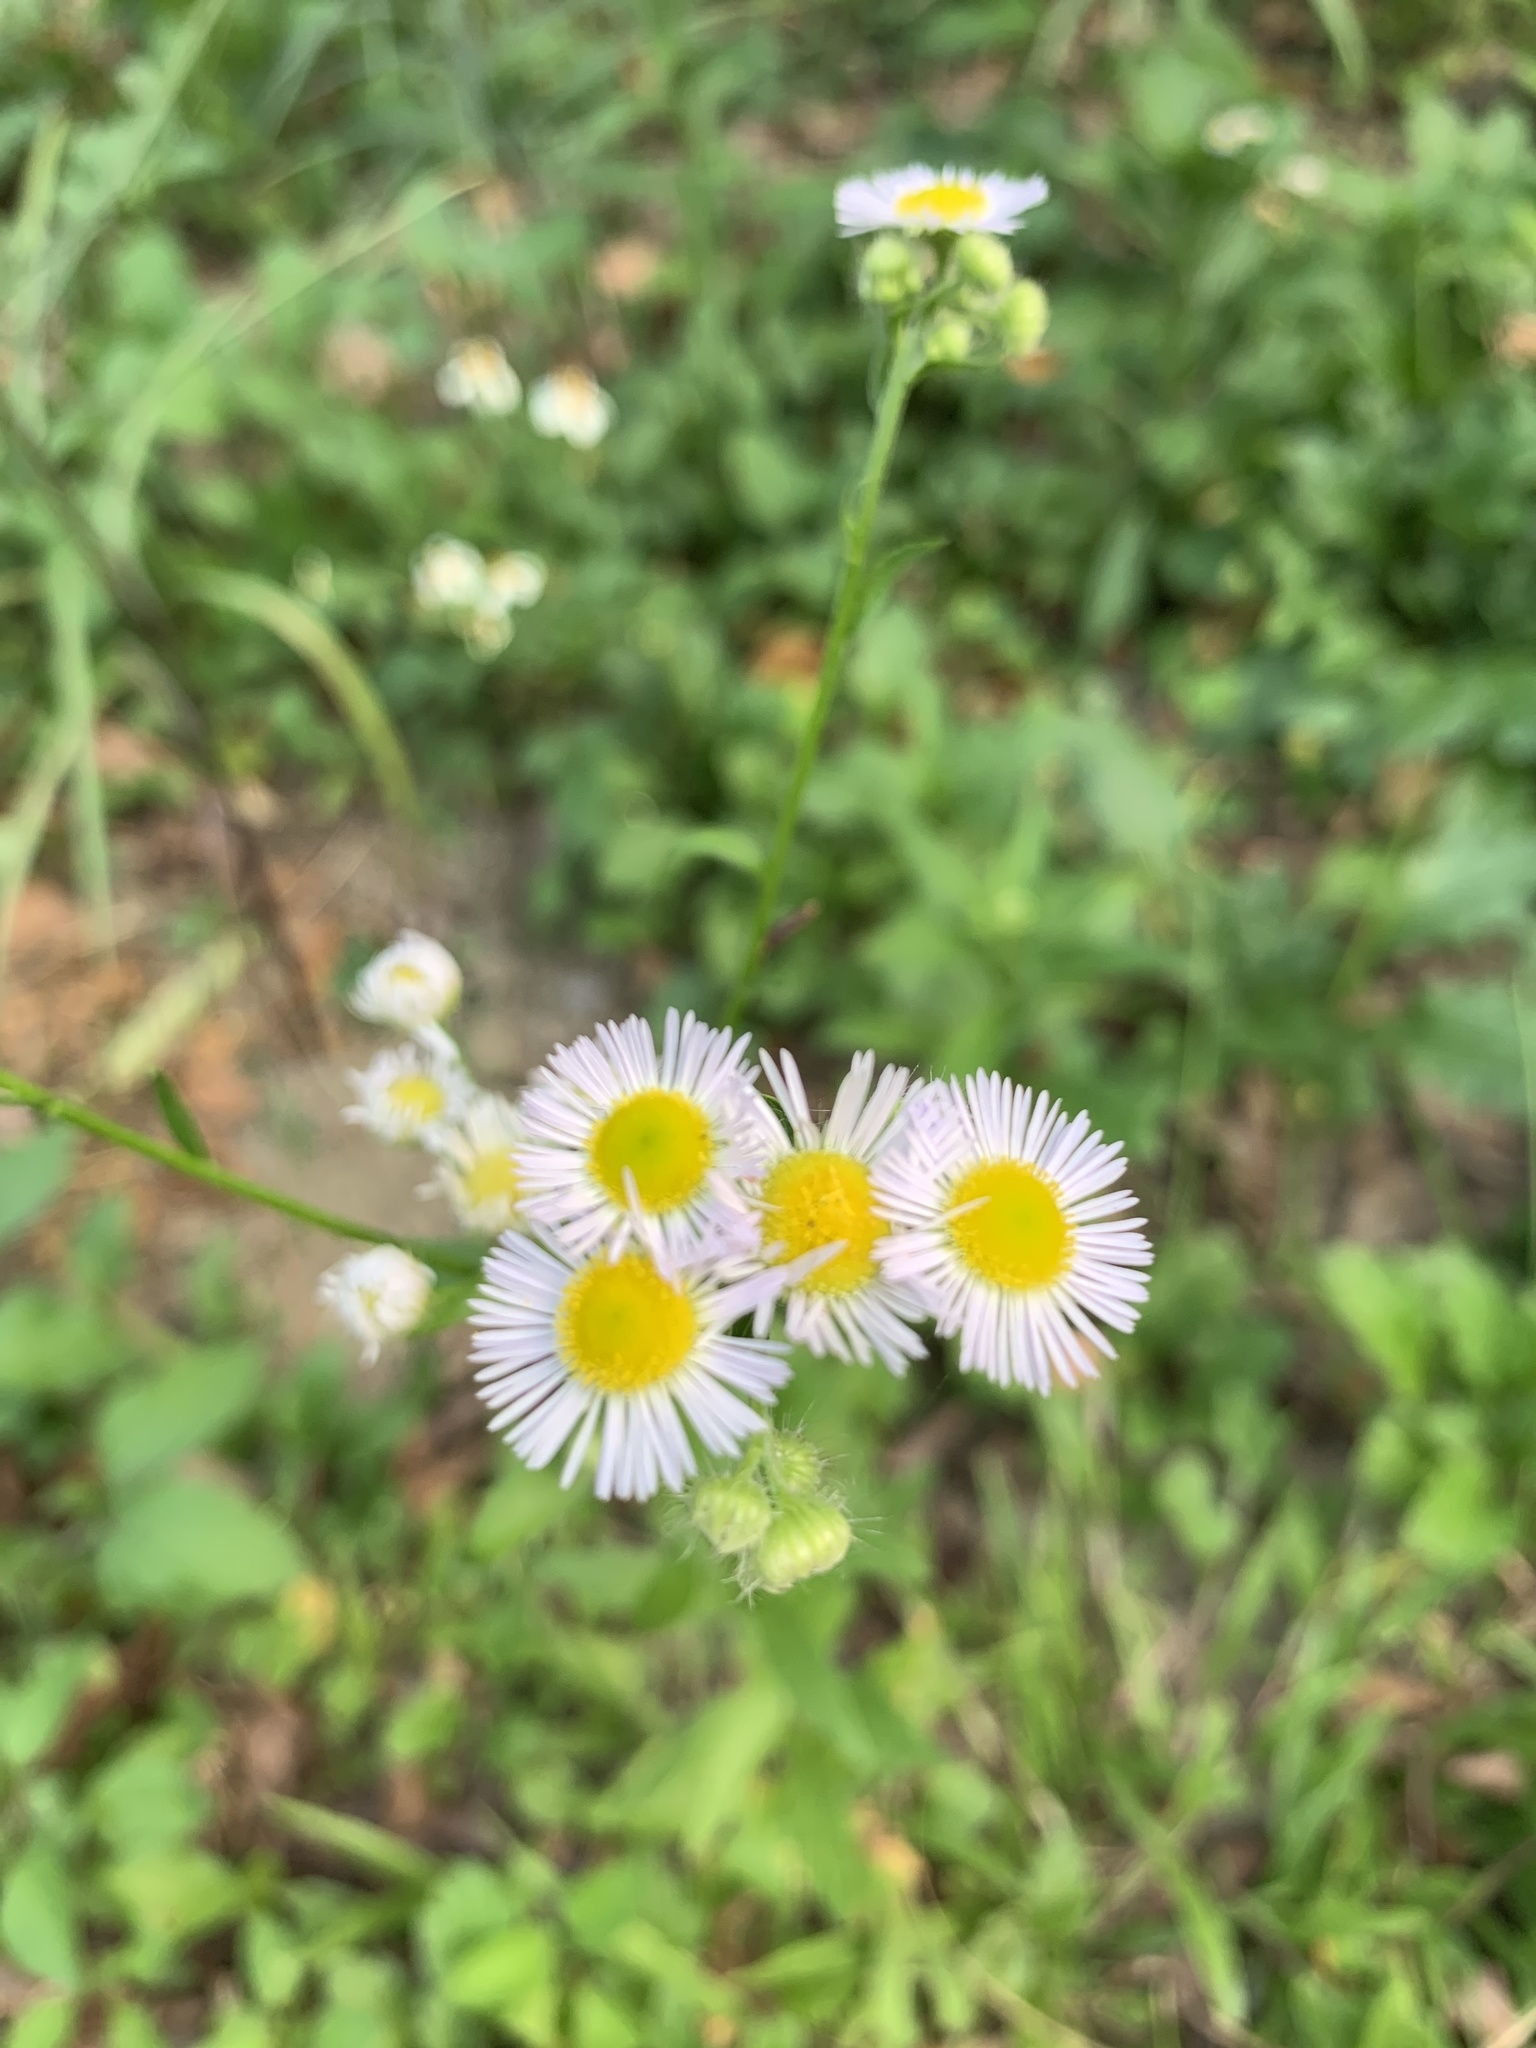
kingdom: Plantae
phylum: Tracheophyta
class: Magnoliopsida
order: Asterales
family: Asteraceae
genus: Erigeron
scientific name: Erigeron annuus
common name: Tall fleabane
